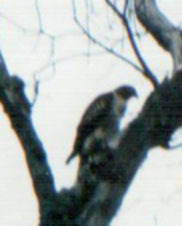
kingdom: Animalia
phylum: Chordata
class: Aves
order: Accipitriformes
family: Accipitridae
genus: Buteo
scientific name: Buteo jamaicensis
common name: Red-tailed hawk
